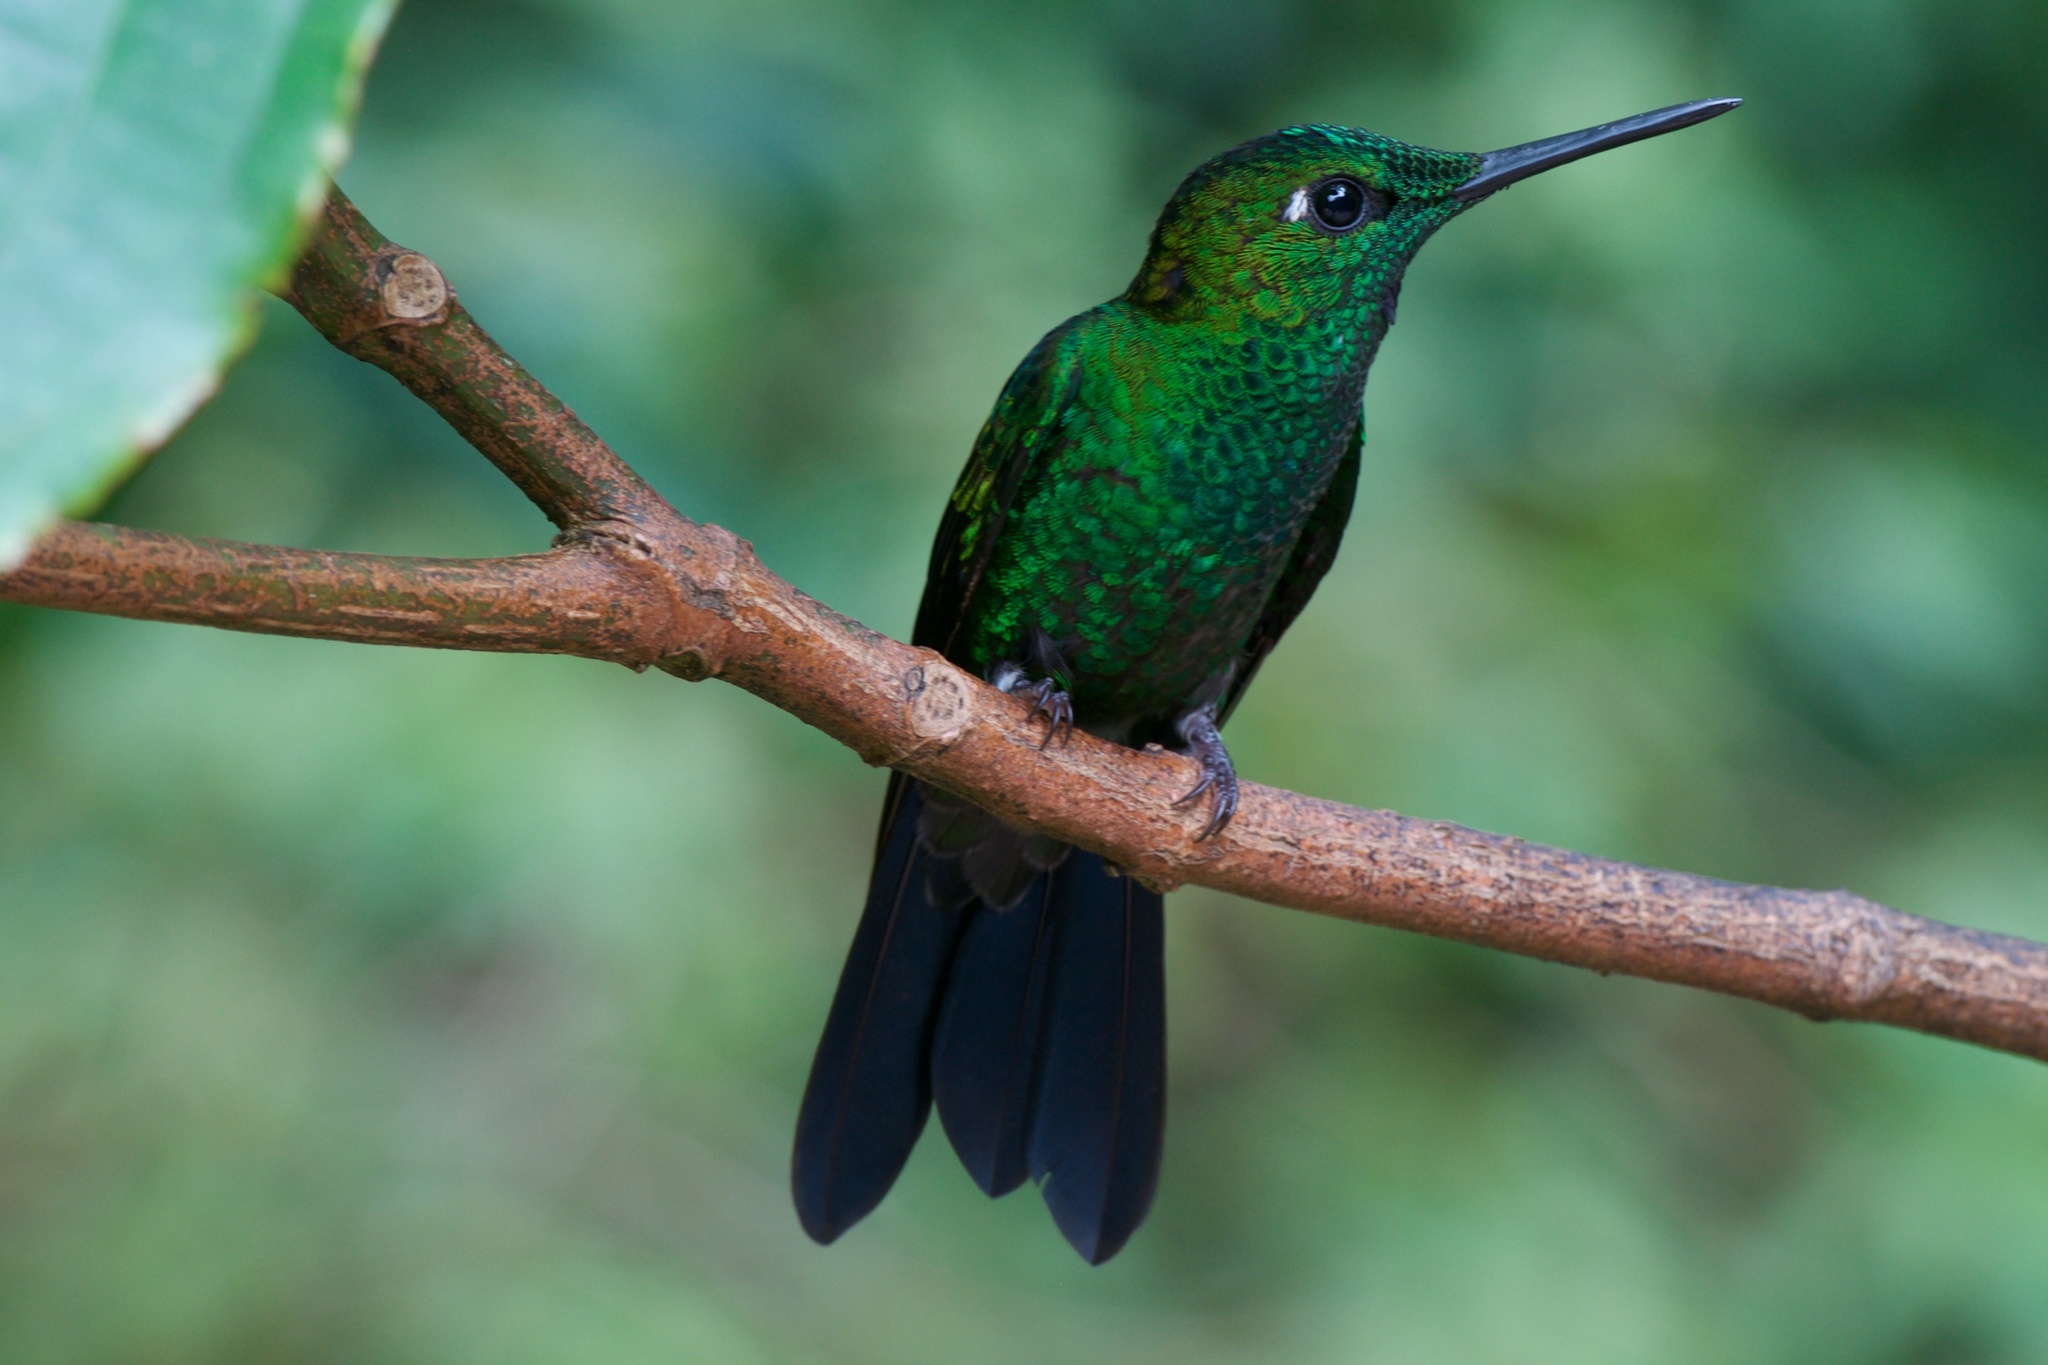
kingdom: Animalia
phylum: Chordata
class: Aves
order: Apodiformes
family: Trochilidae
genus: Heliodoxa
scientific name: Heliodoxa jacula
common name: Green-crowned brilliant
